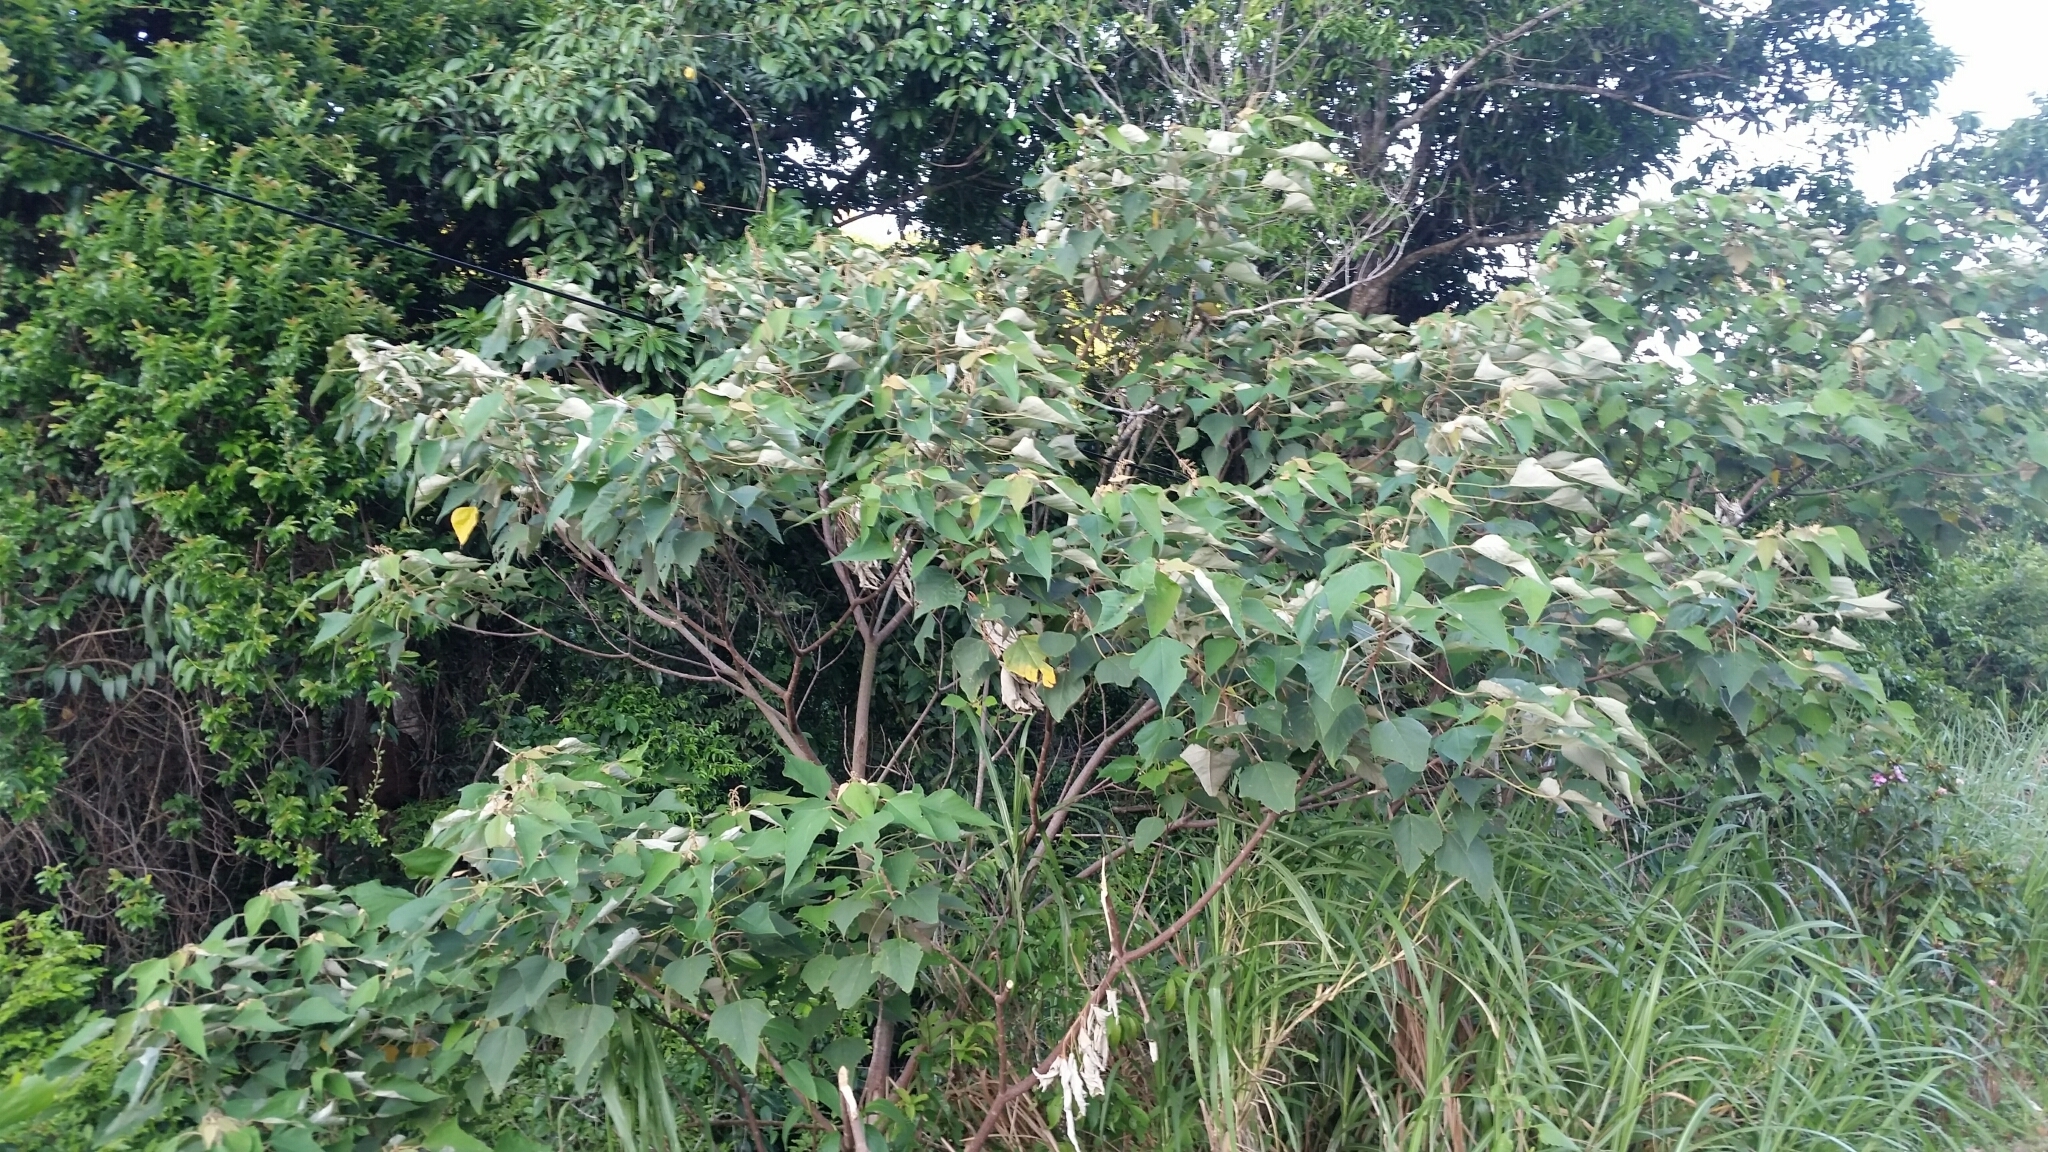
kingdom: Plantae
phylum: Tracheophyta
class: Magnoliopsida
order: Malpighiales
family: Euphorbiaceae
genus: Mallotus
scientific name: Mallotus paniculatus
